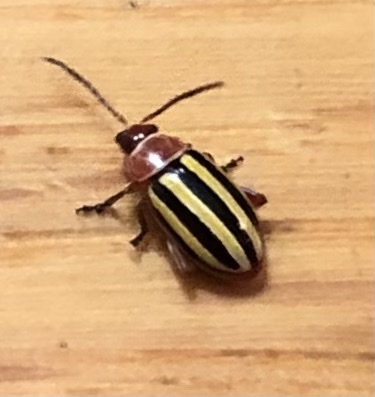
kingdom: Animalia
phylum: Arthropoda
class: Insecta
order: Coleoptera
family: Chrysomelidae
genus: Disonycha
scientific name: Disonycha admirabila
